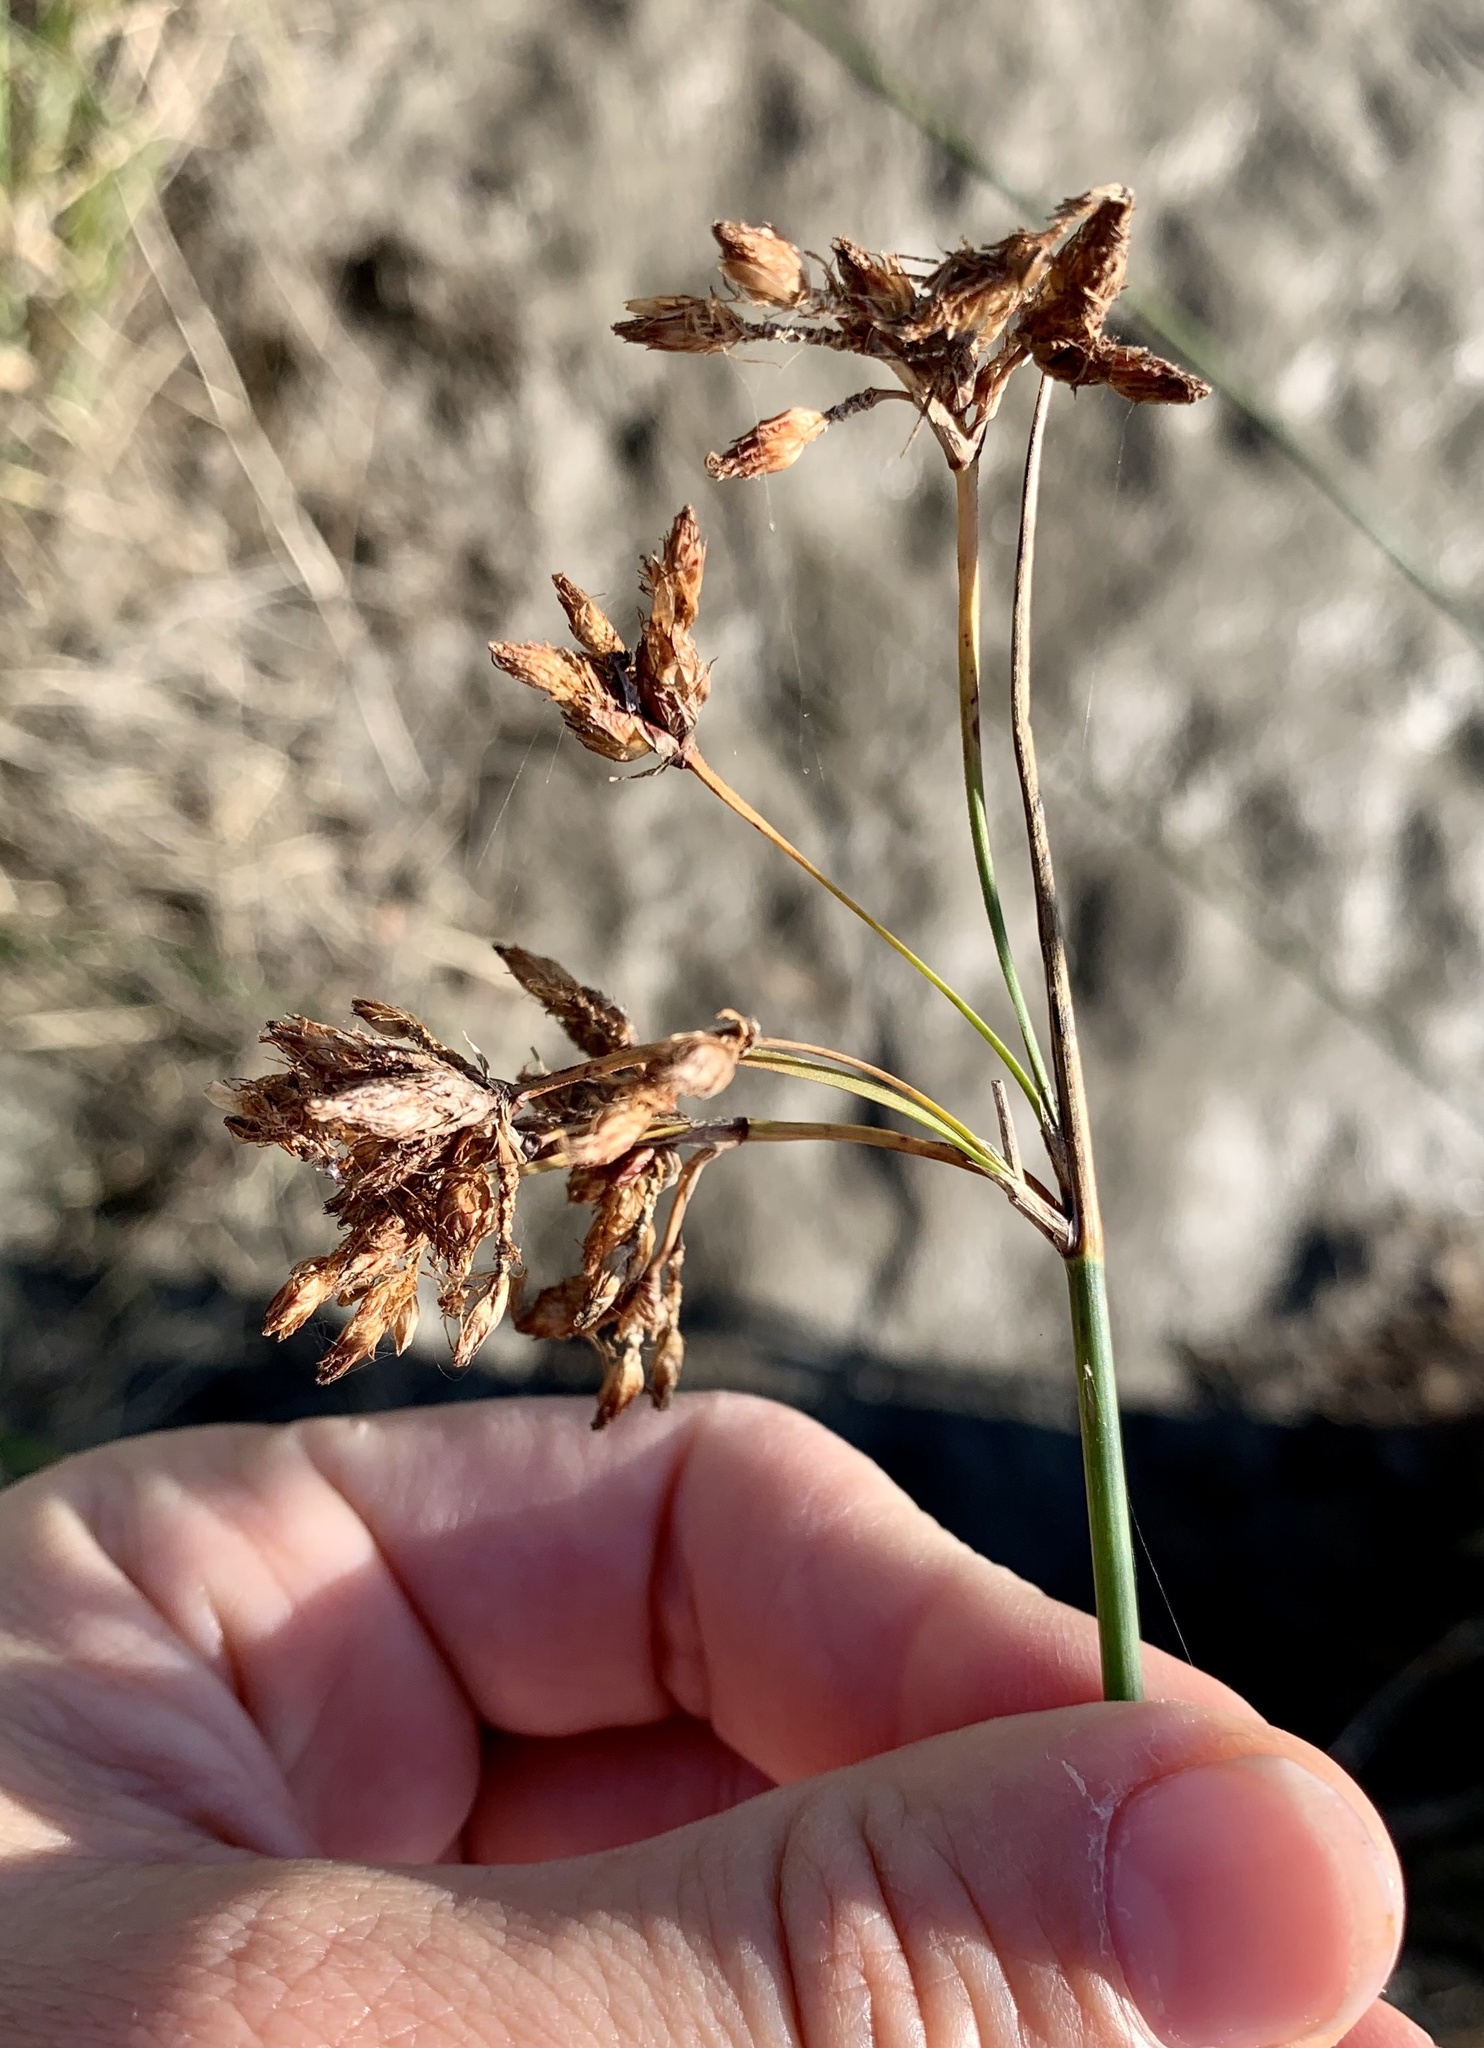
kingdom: Plantae
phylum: Tracheophyta
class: Liliopsida
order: Poales
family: Cyperaceae
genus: Schoenoplectus
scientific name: Schoenoplectus lacustris
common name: Common club-rush
